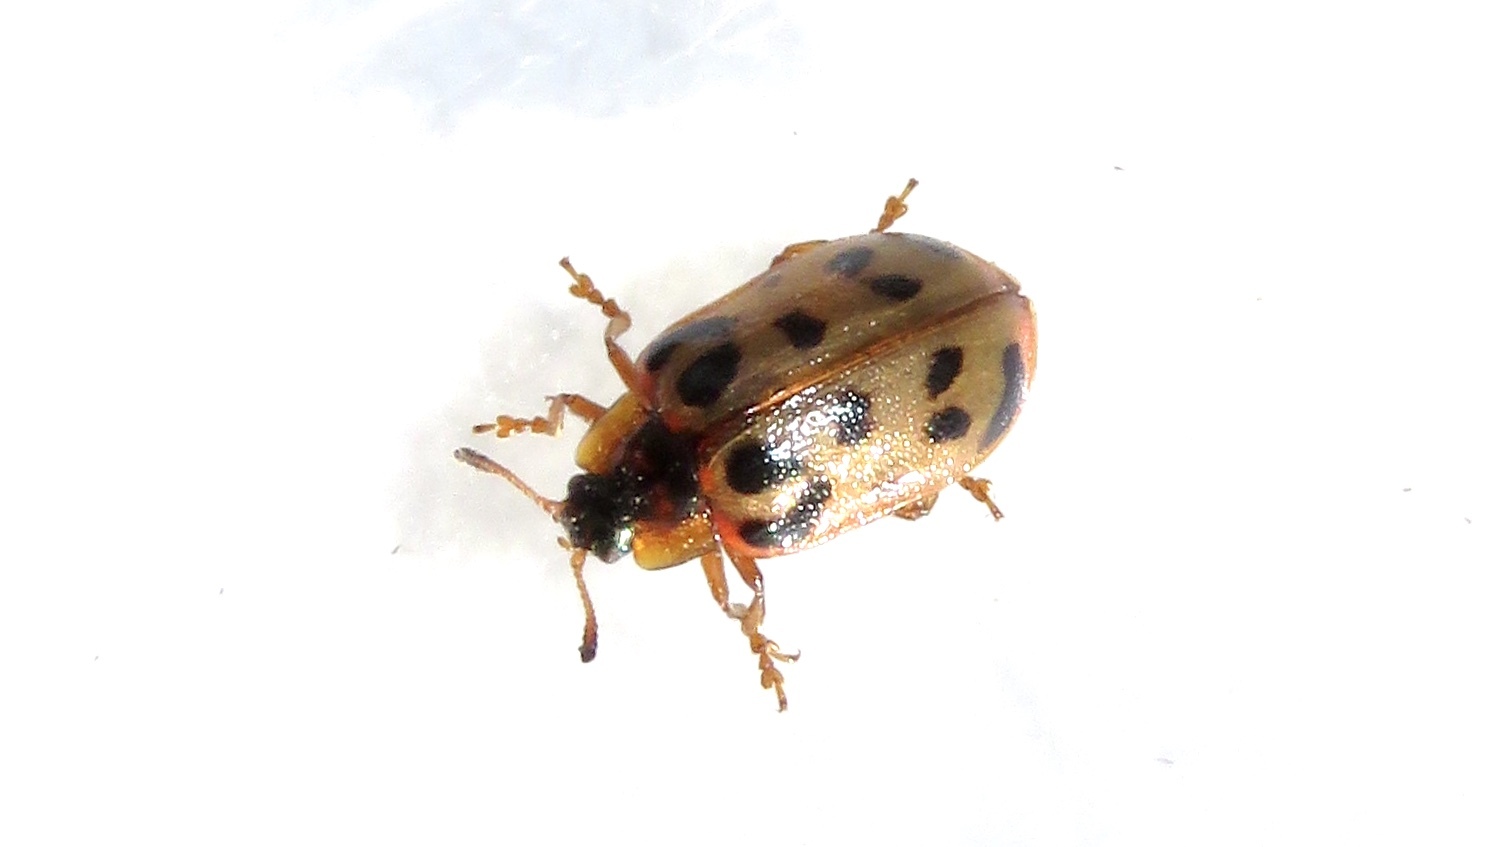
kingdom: Animalia
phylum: Arthropoda
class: Insecta
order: Coleoptera
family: Chrysomelidae
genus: Chrysomela
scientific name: Chrysomela mainensis
